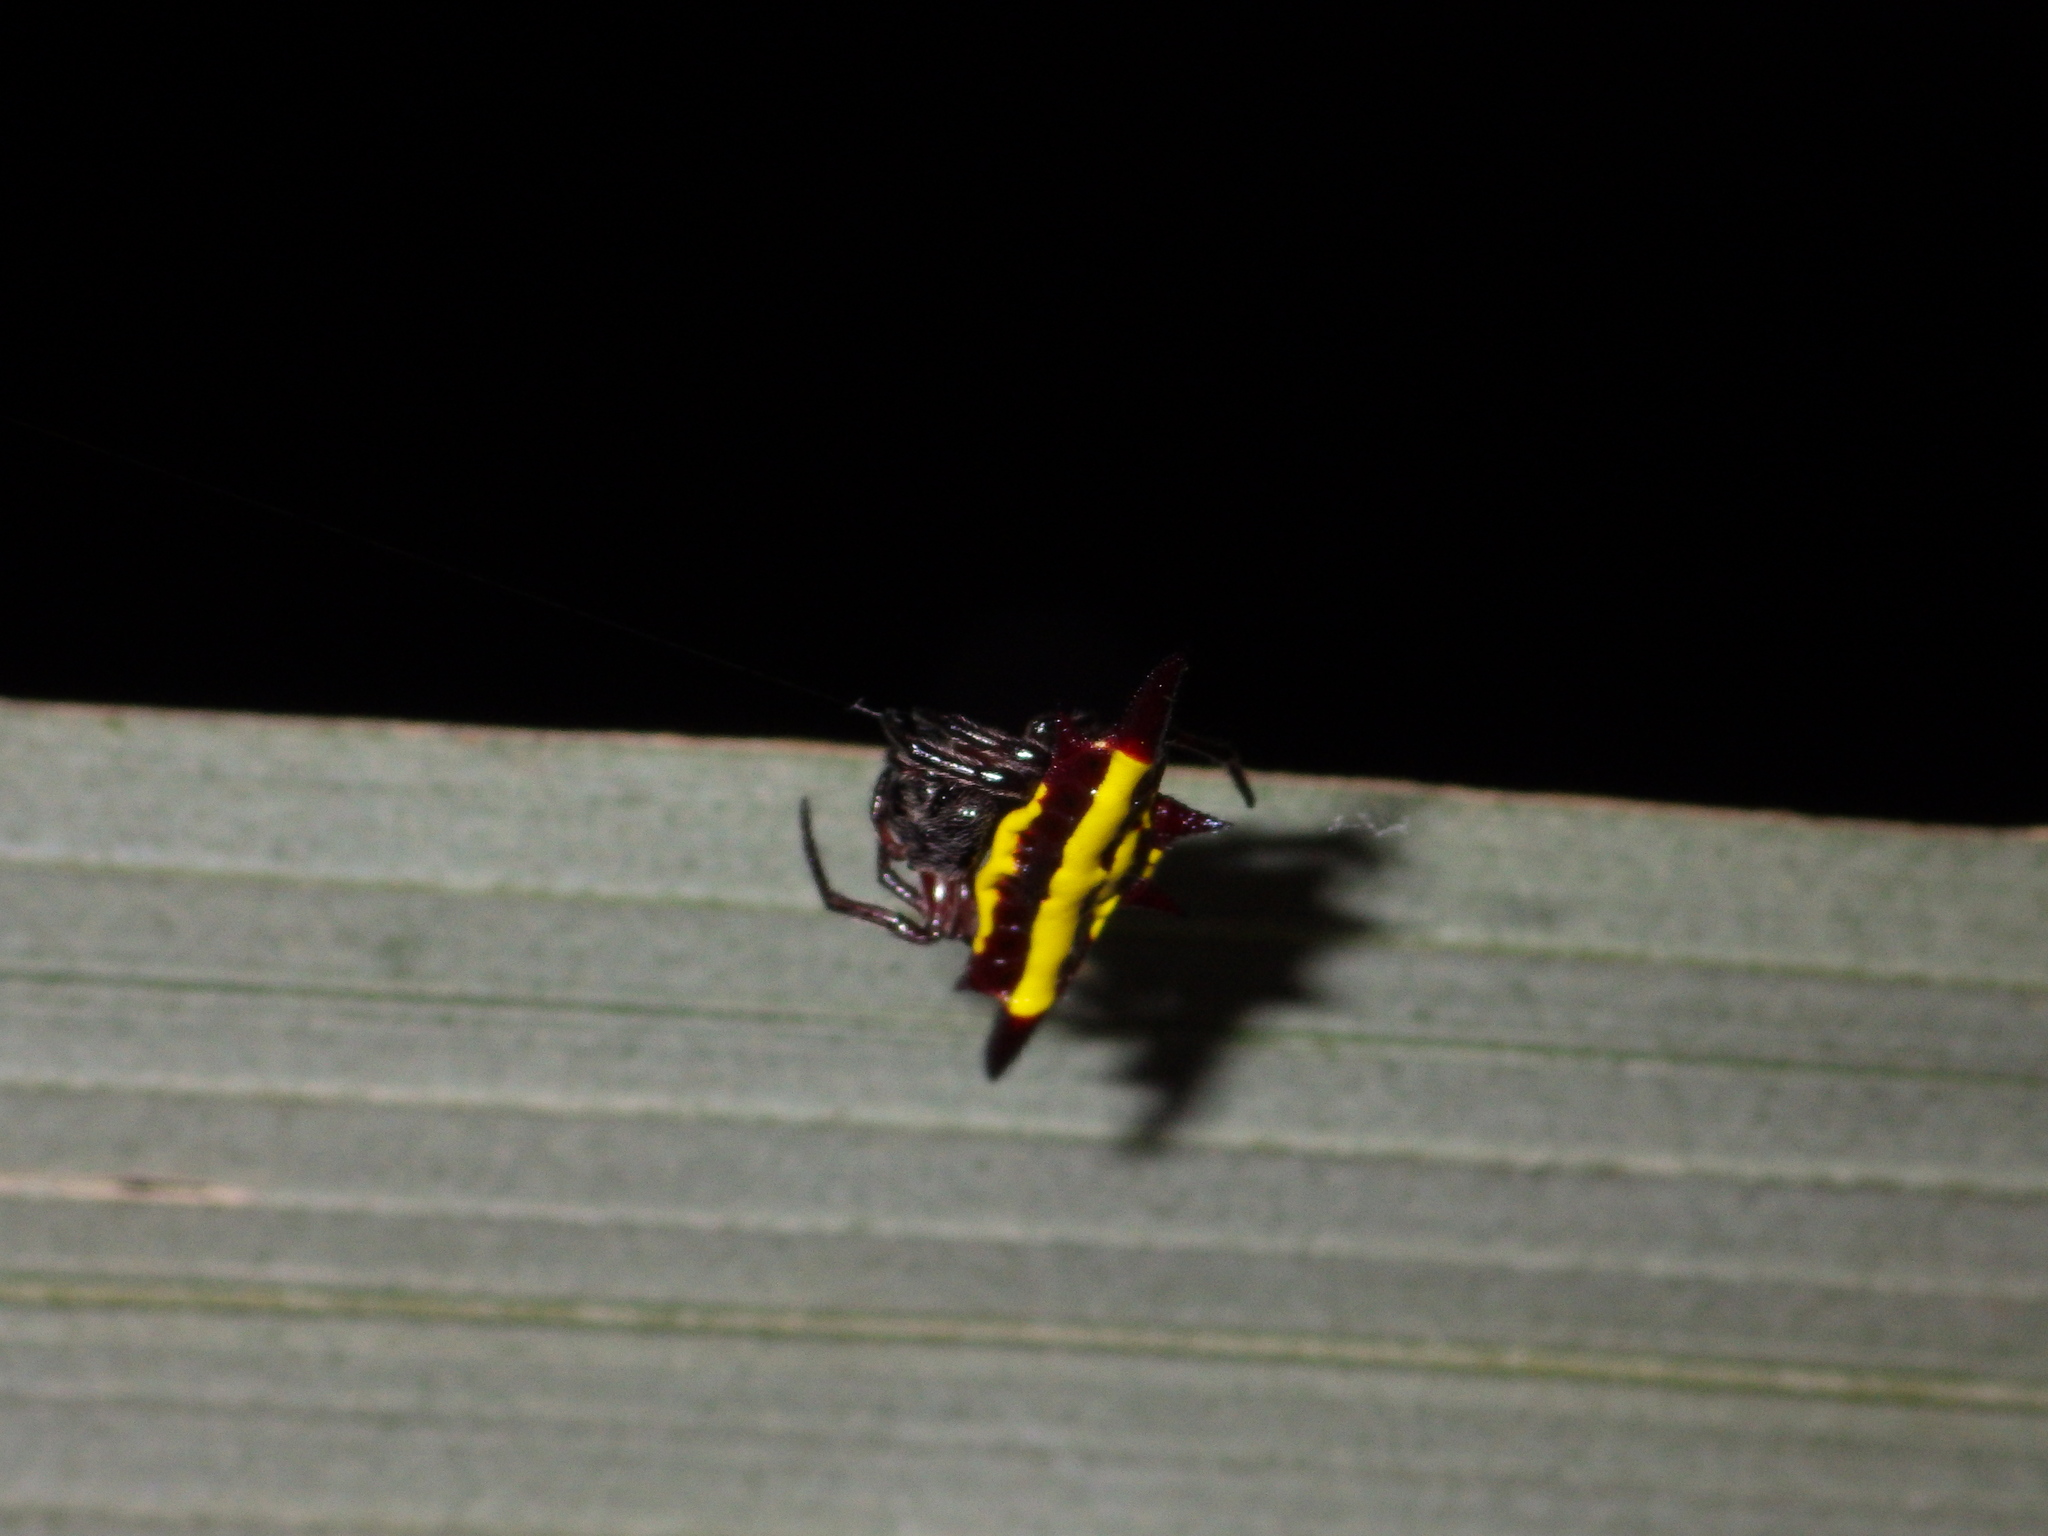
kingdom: Animalia
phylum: Arthropoda
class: Arachnida
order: Araneae
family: Araneidae
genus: Gasteracantha
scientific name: Gasteracantha fornicata
